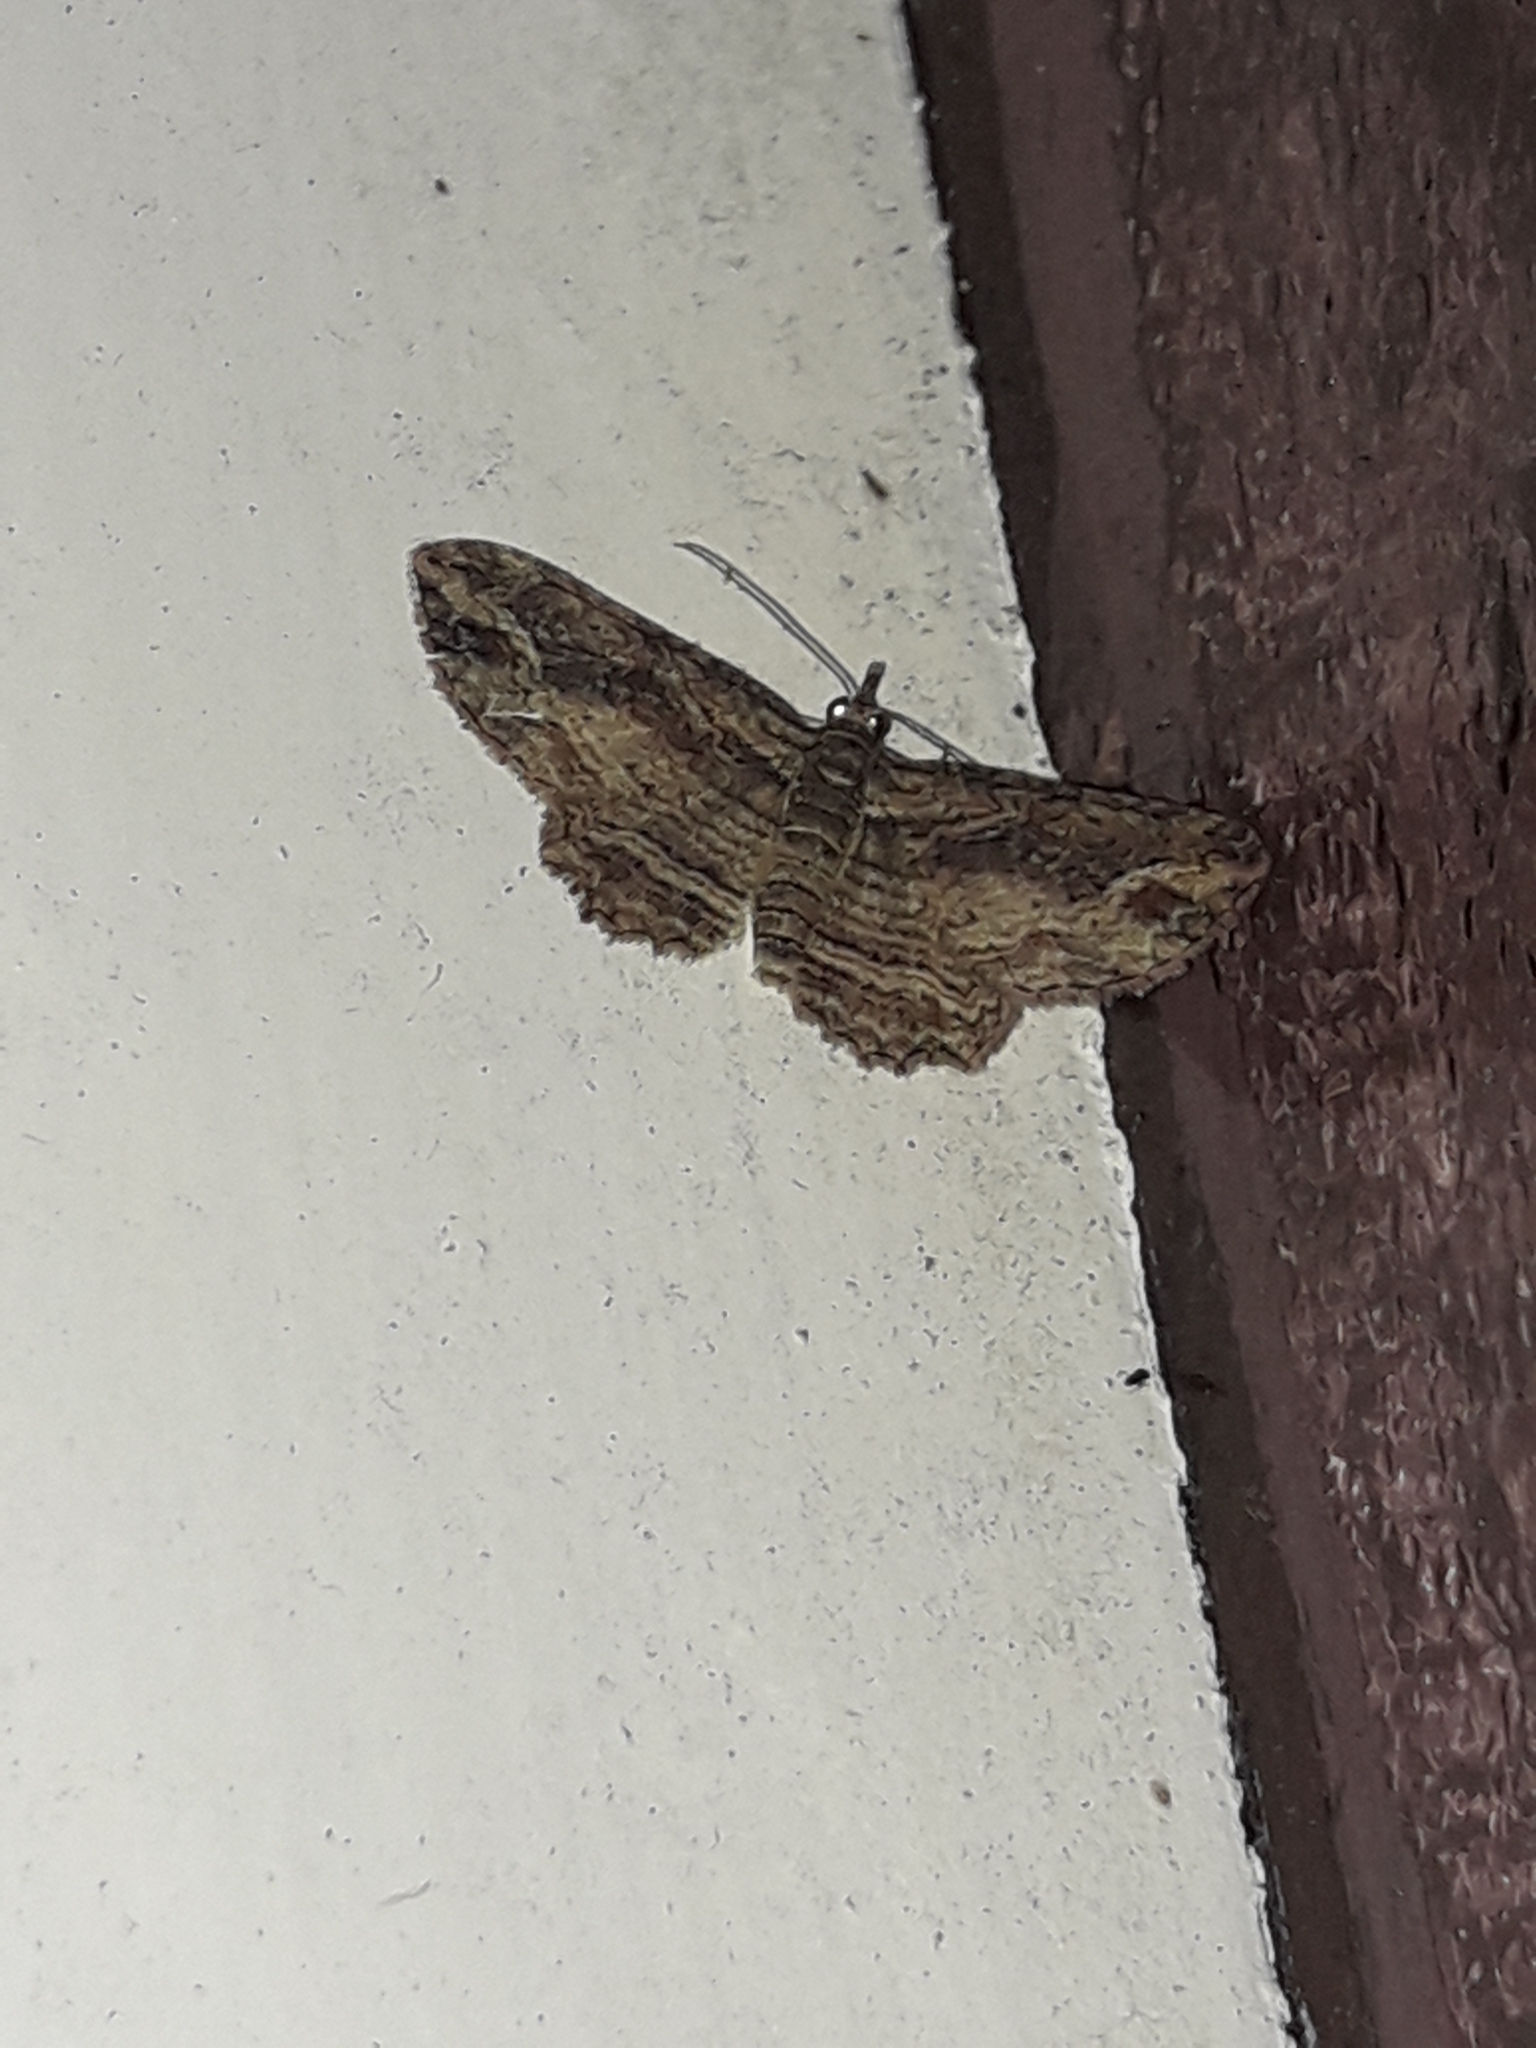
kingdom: Animalia
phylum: Arthropoda
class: Insecta
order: Lepidoptera
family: Geometridae
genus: Chloroclystis
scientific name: Chloroclystis filata
